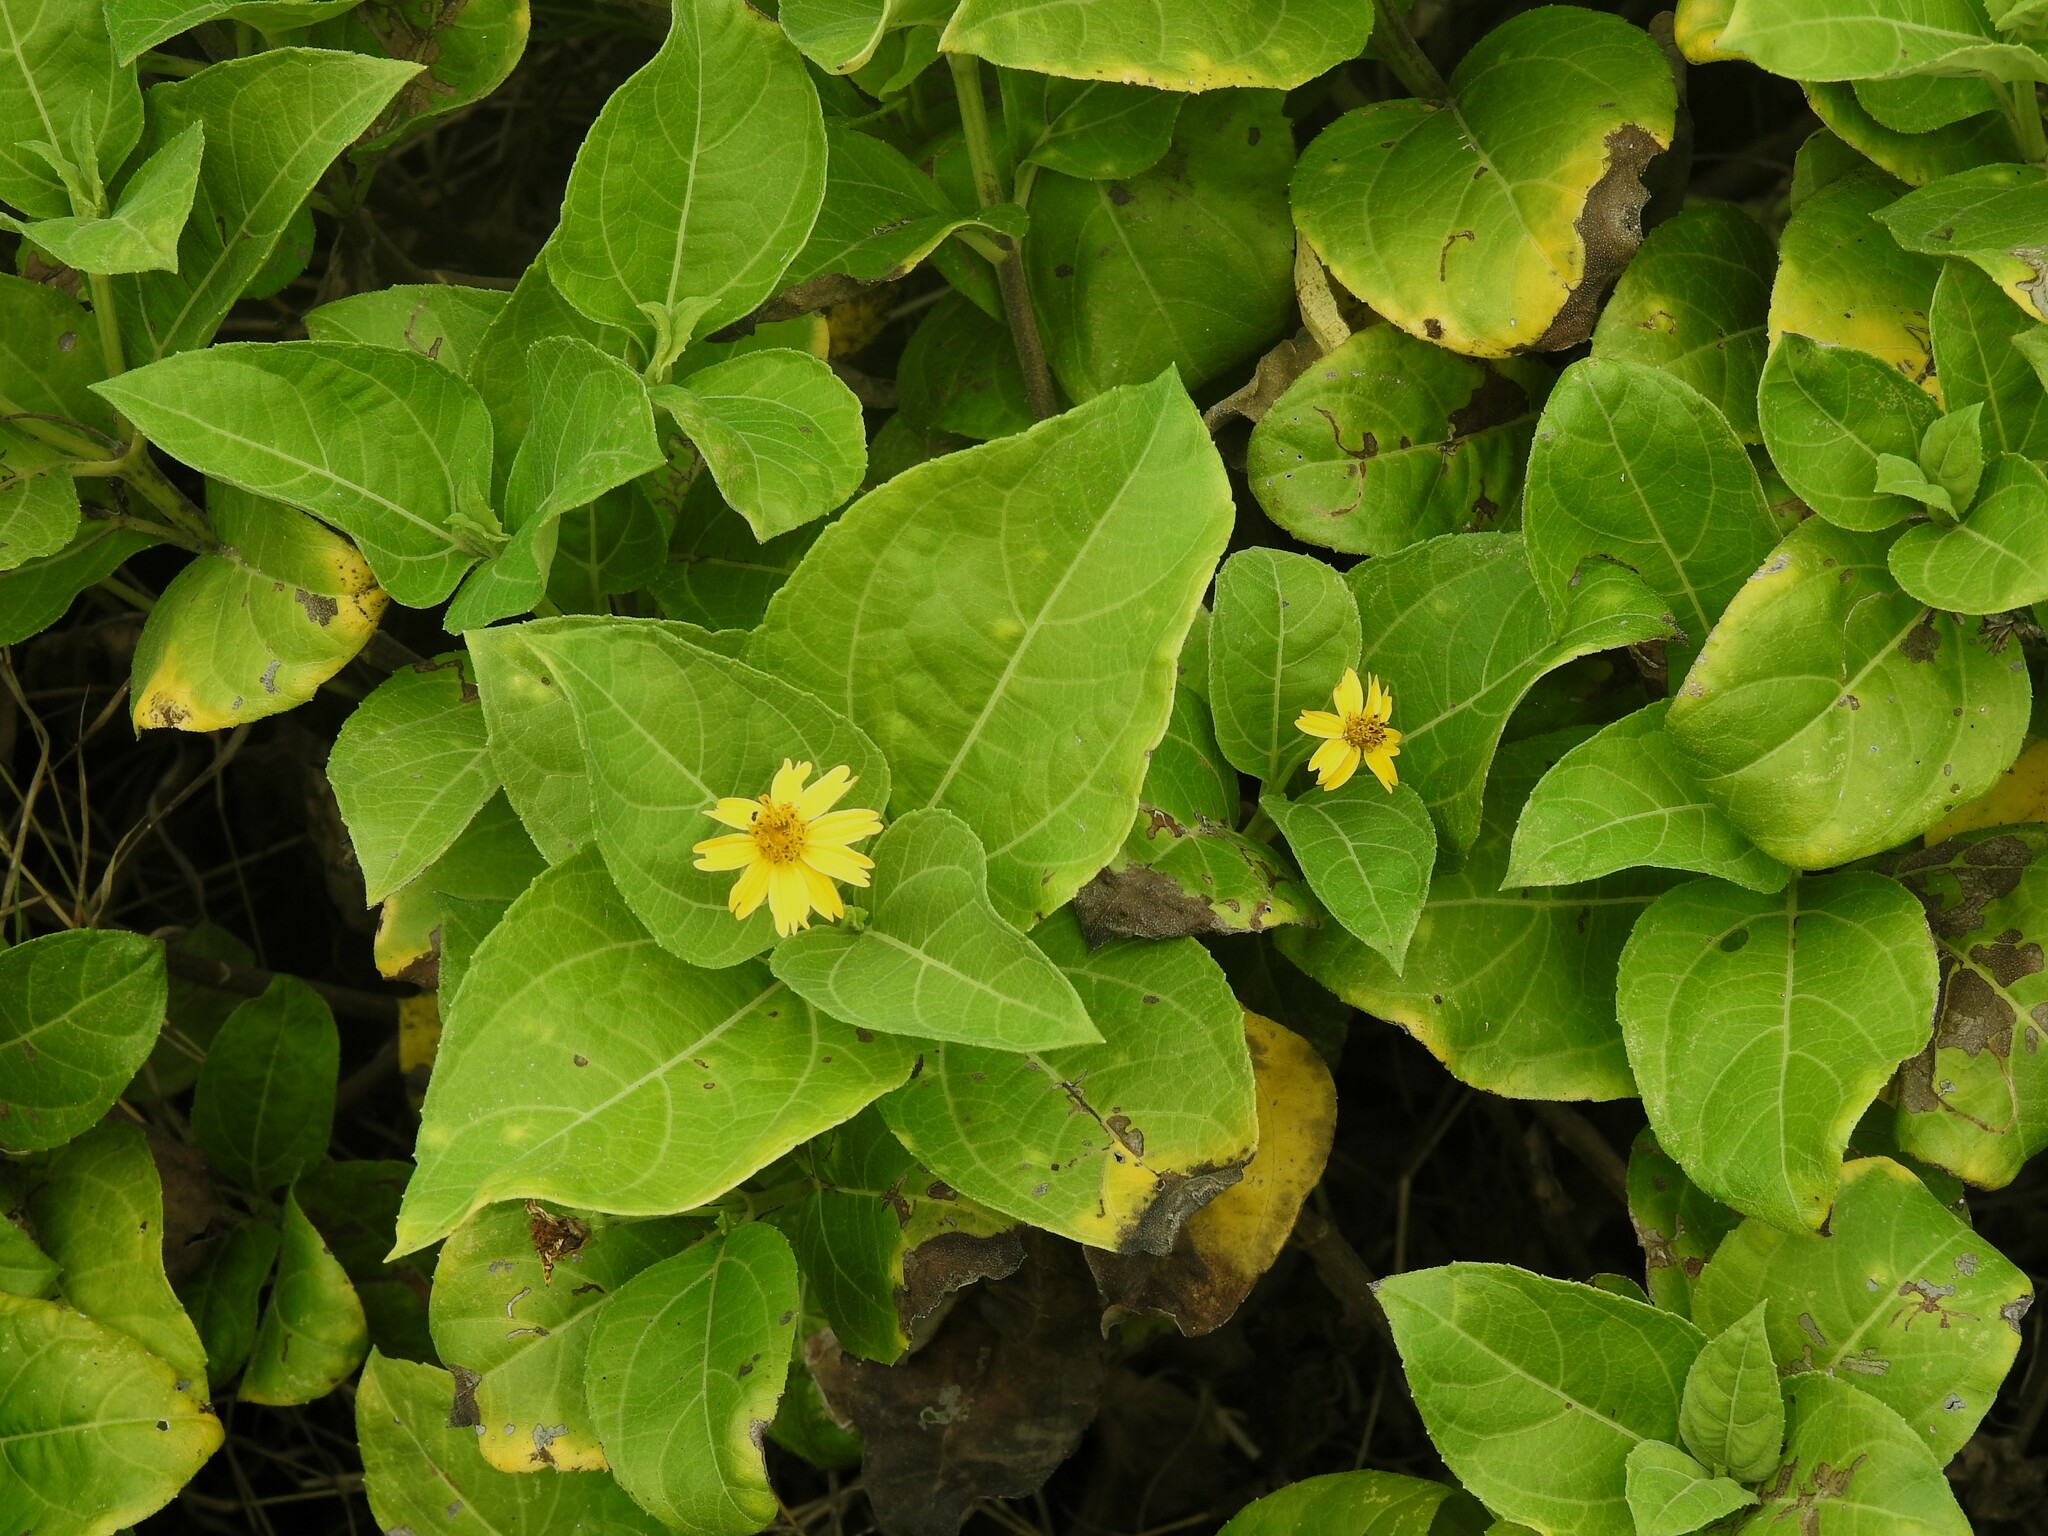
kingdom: Plantae
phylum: Tracheophyta
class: Magnoliopsida
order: Asterales
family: Asteraceae
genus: Wedelia
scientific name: Wedelia calycina
